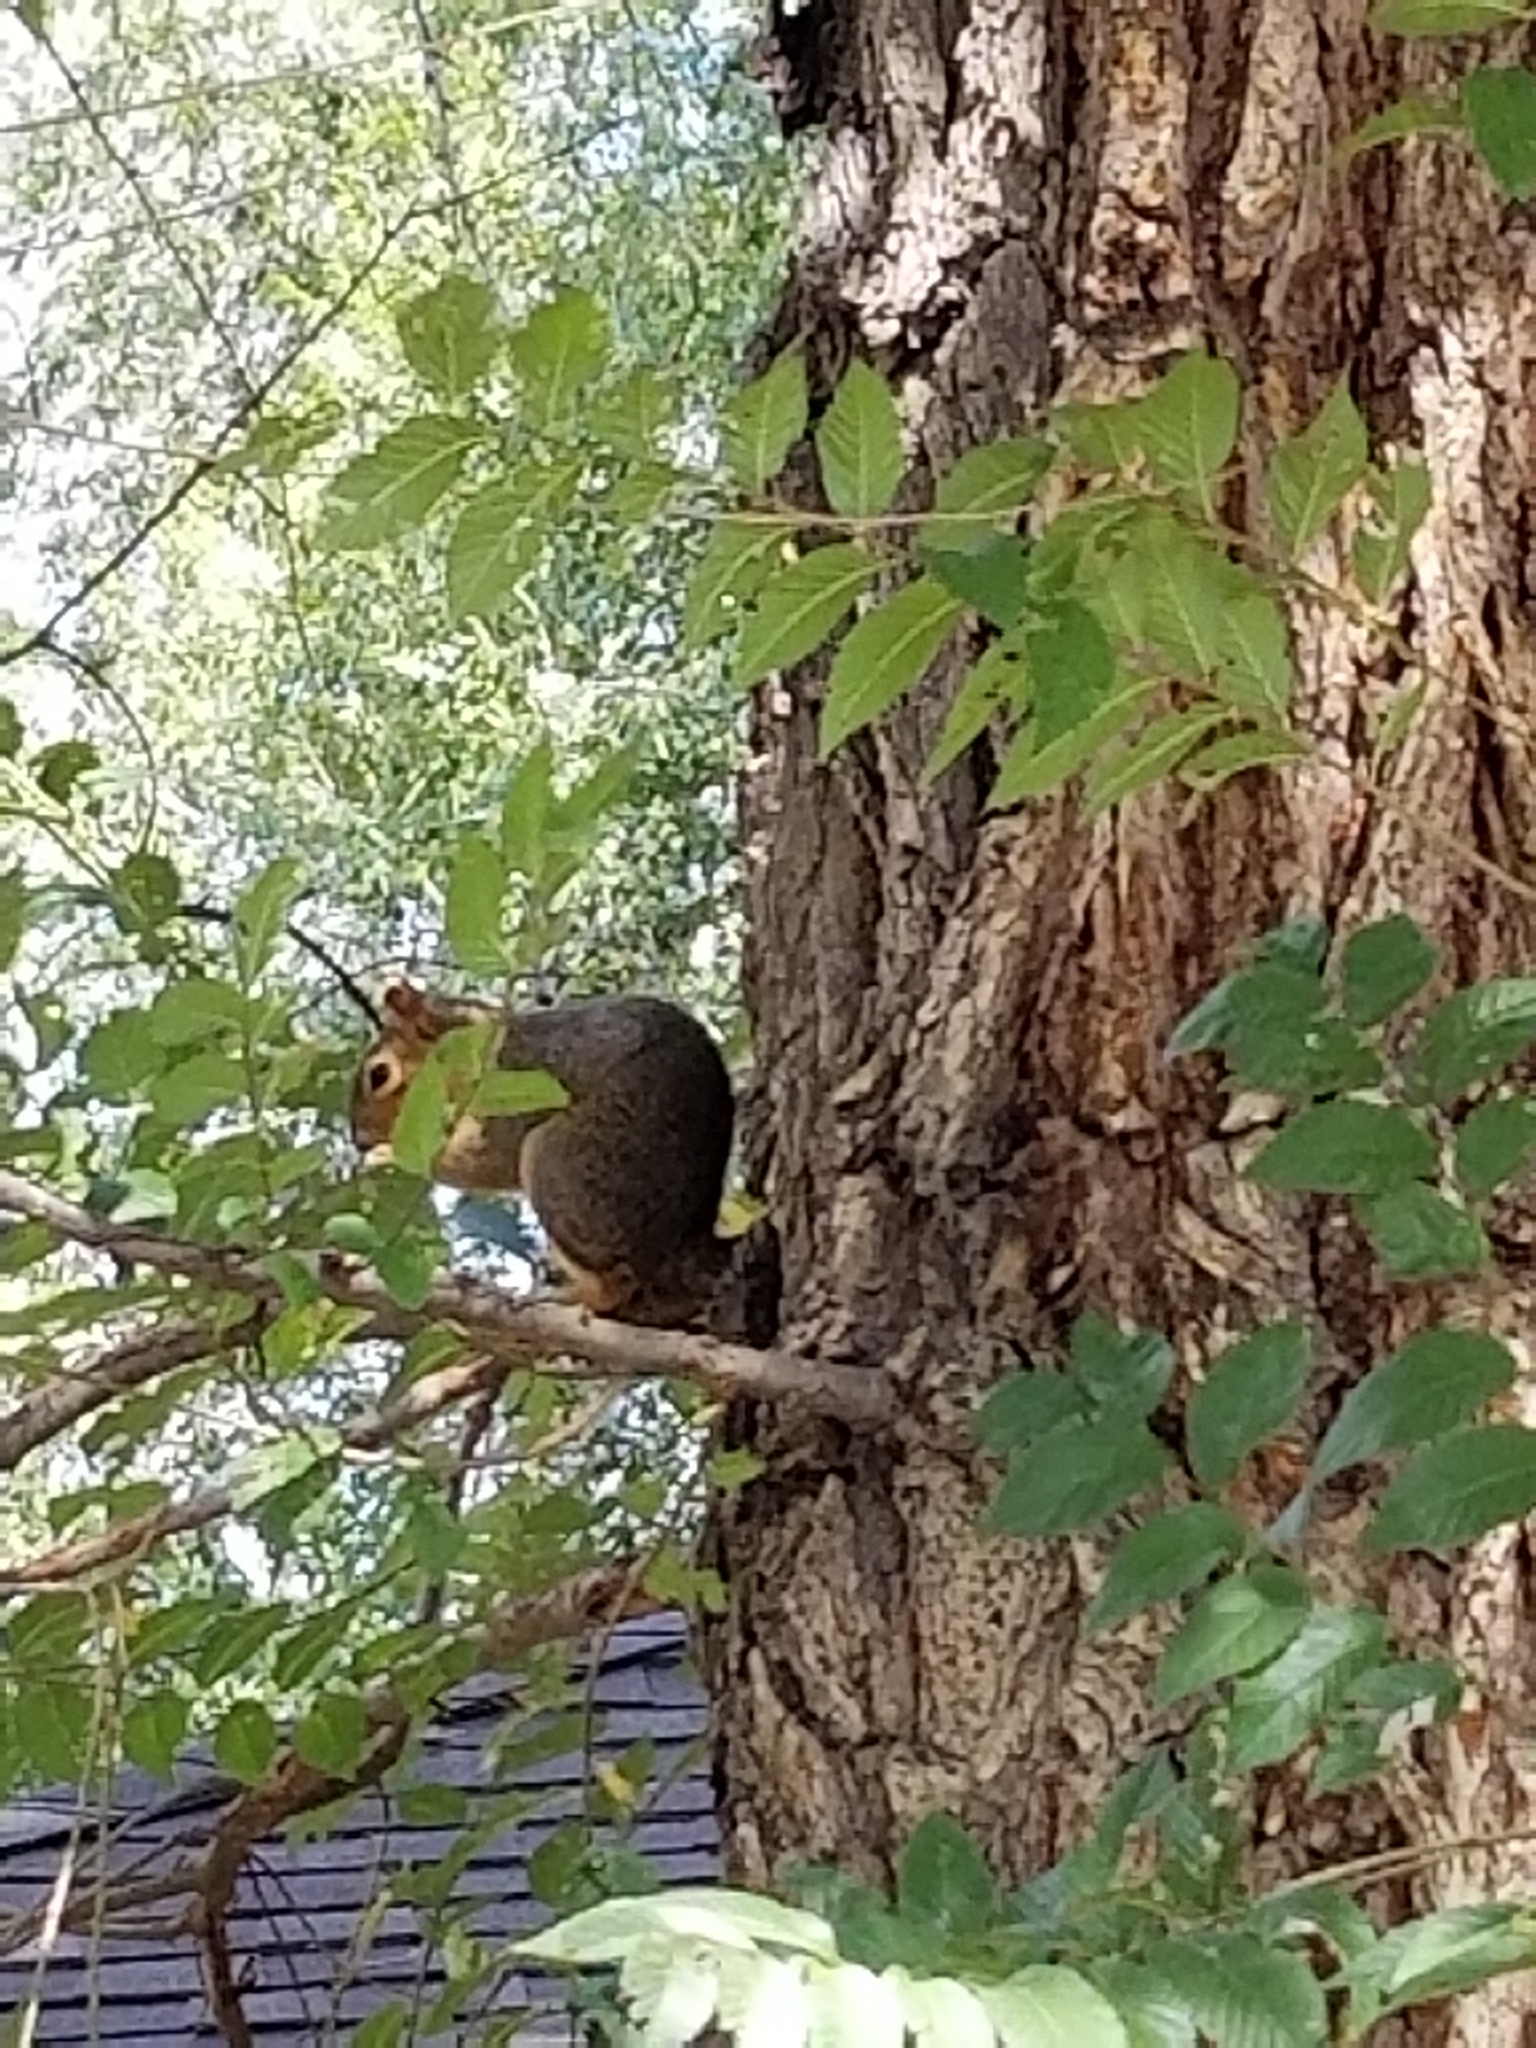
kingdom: Animalia
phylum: Chordata
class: Mammalia
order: Rodentia
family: Sciuridae
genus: Sciurus
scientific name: Sciurus niger
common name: Fox squirrel
